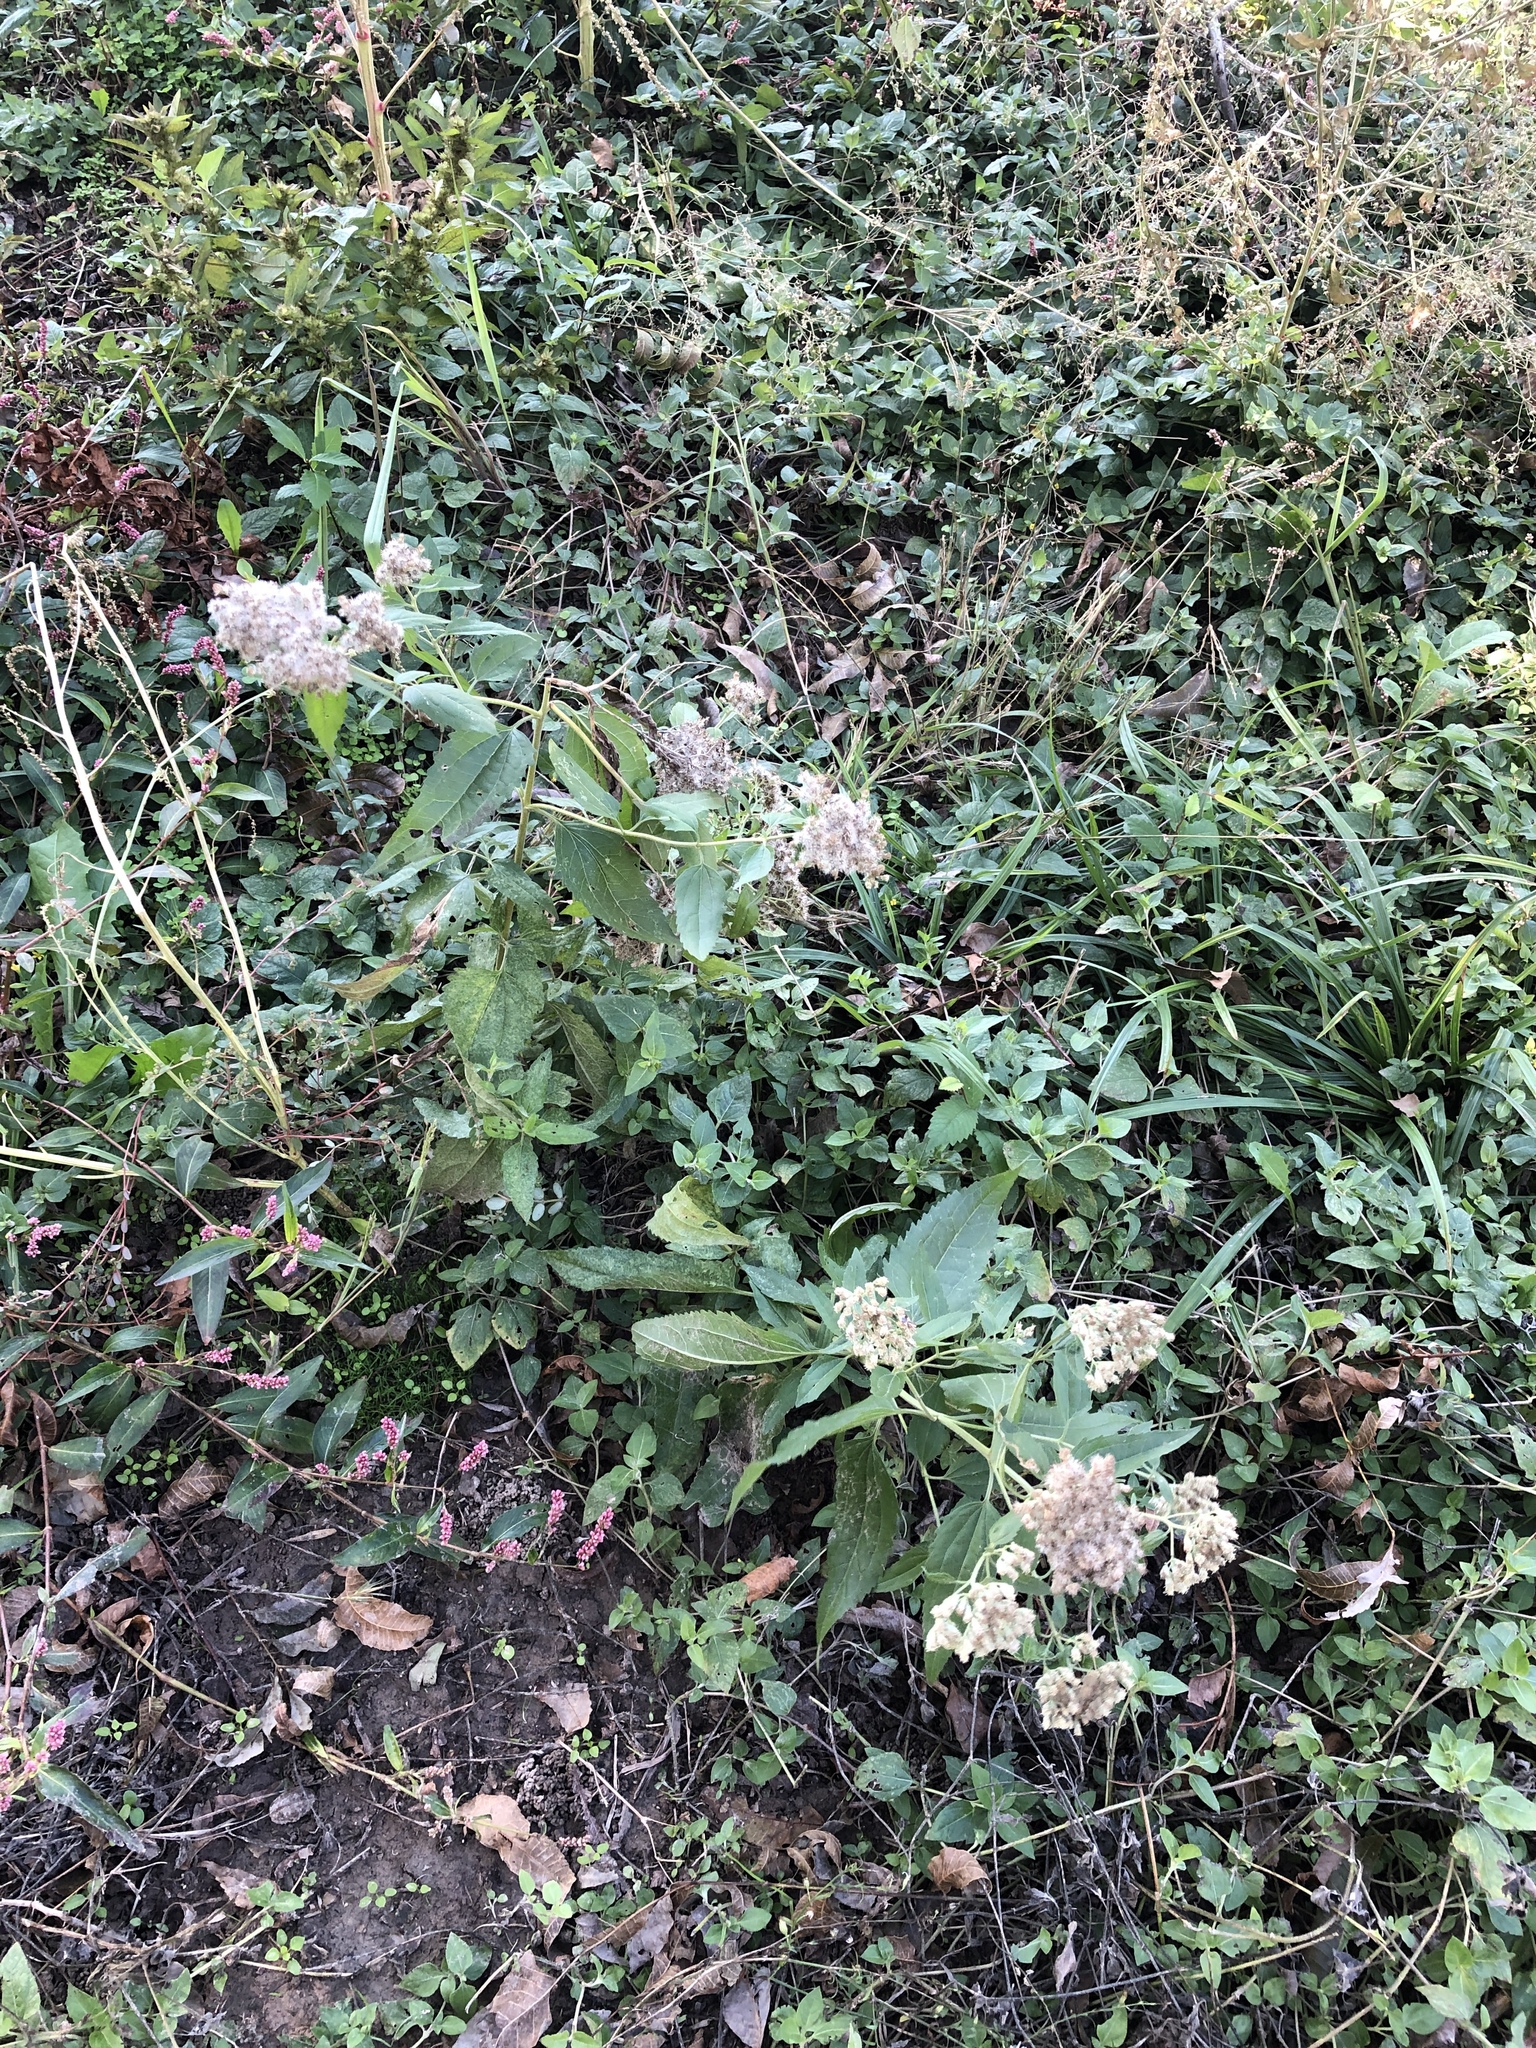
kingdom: Plantae
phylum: Tracheophyta
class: Magnoliopsida
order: Asterales
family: Asteraceae
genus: Eupatorium
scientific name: Eupatorium serotinum
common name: Late boneset
